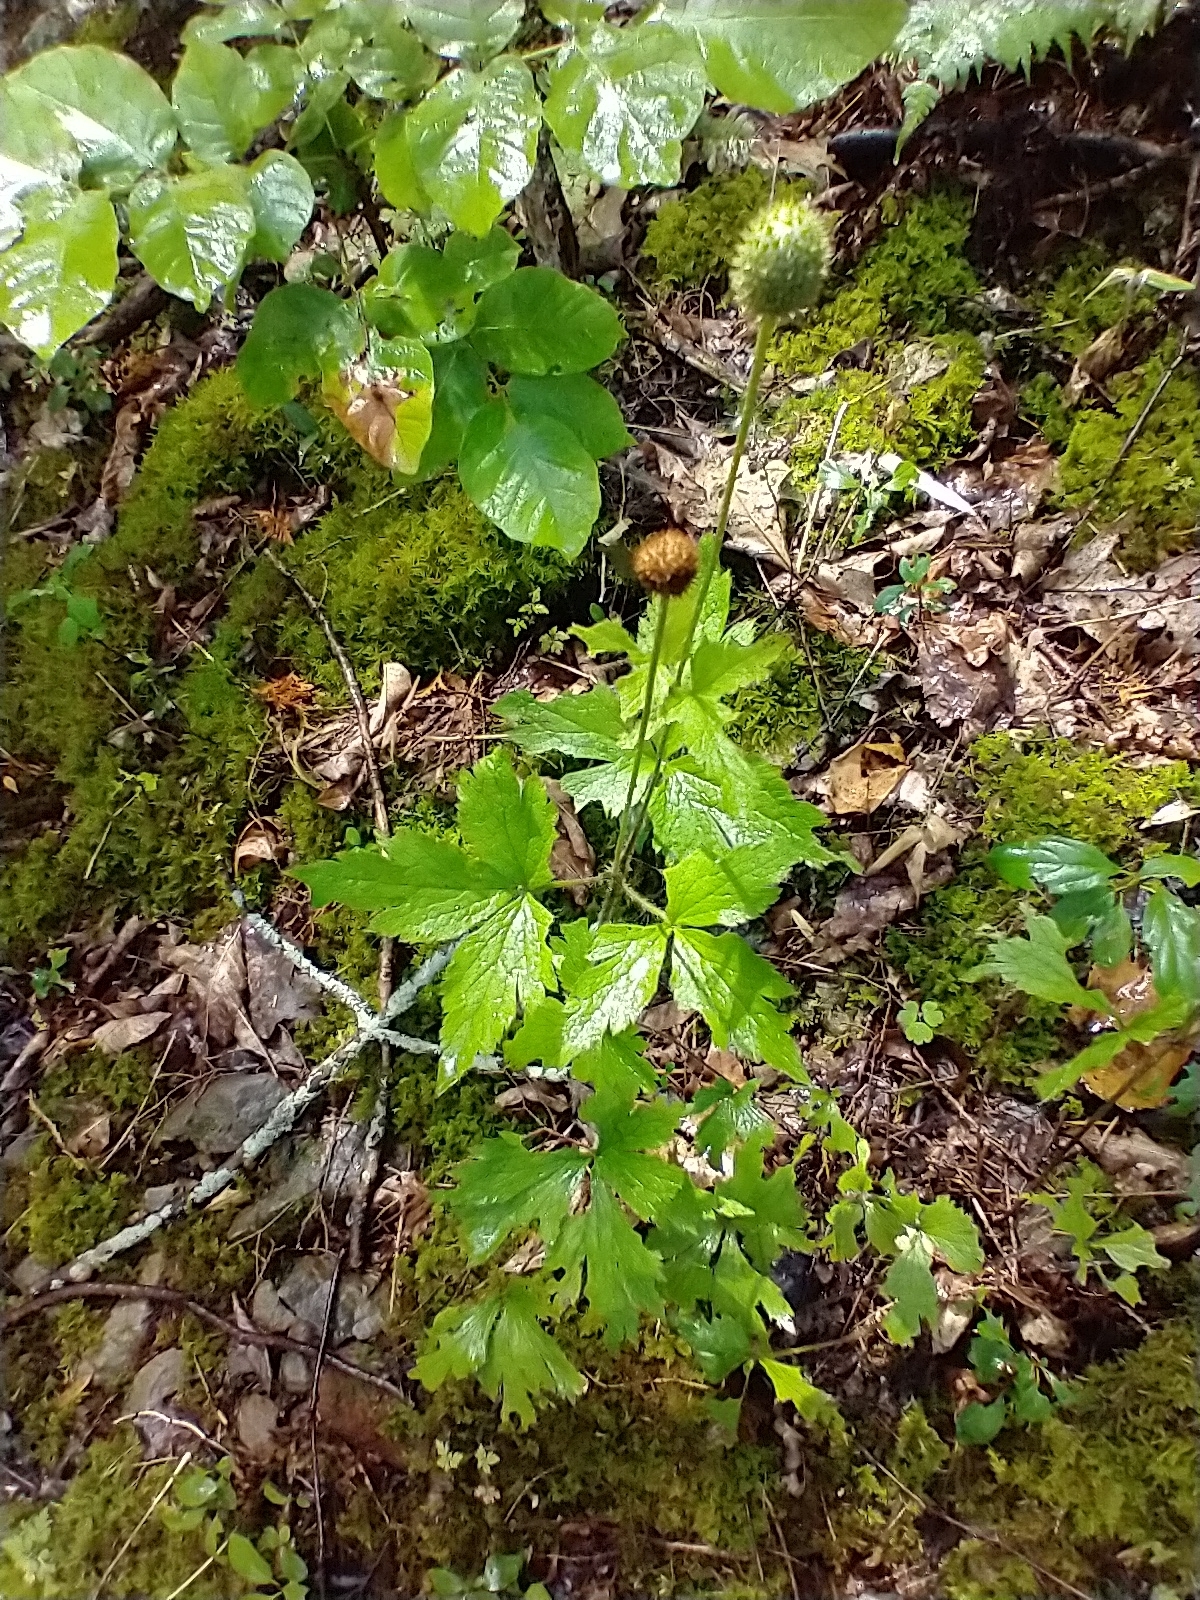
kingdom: Plantae
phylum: Tracheophyta
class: Magnoliopsida
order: Ranunculales
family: Ranunculaceae
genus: Anemone
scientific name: Anemone virginiana
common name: Tall anemone
